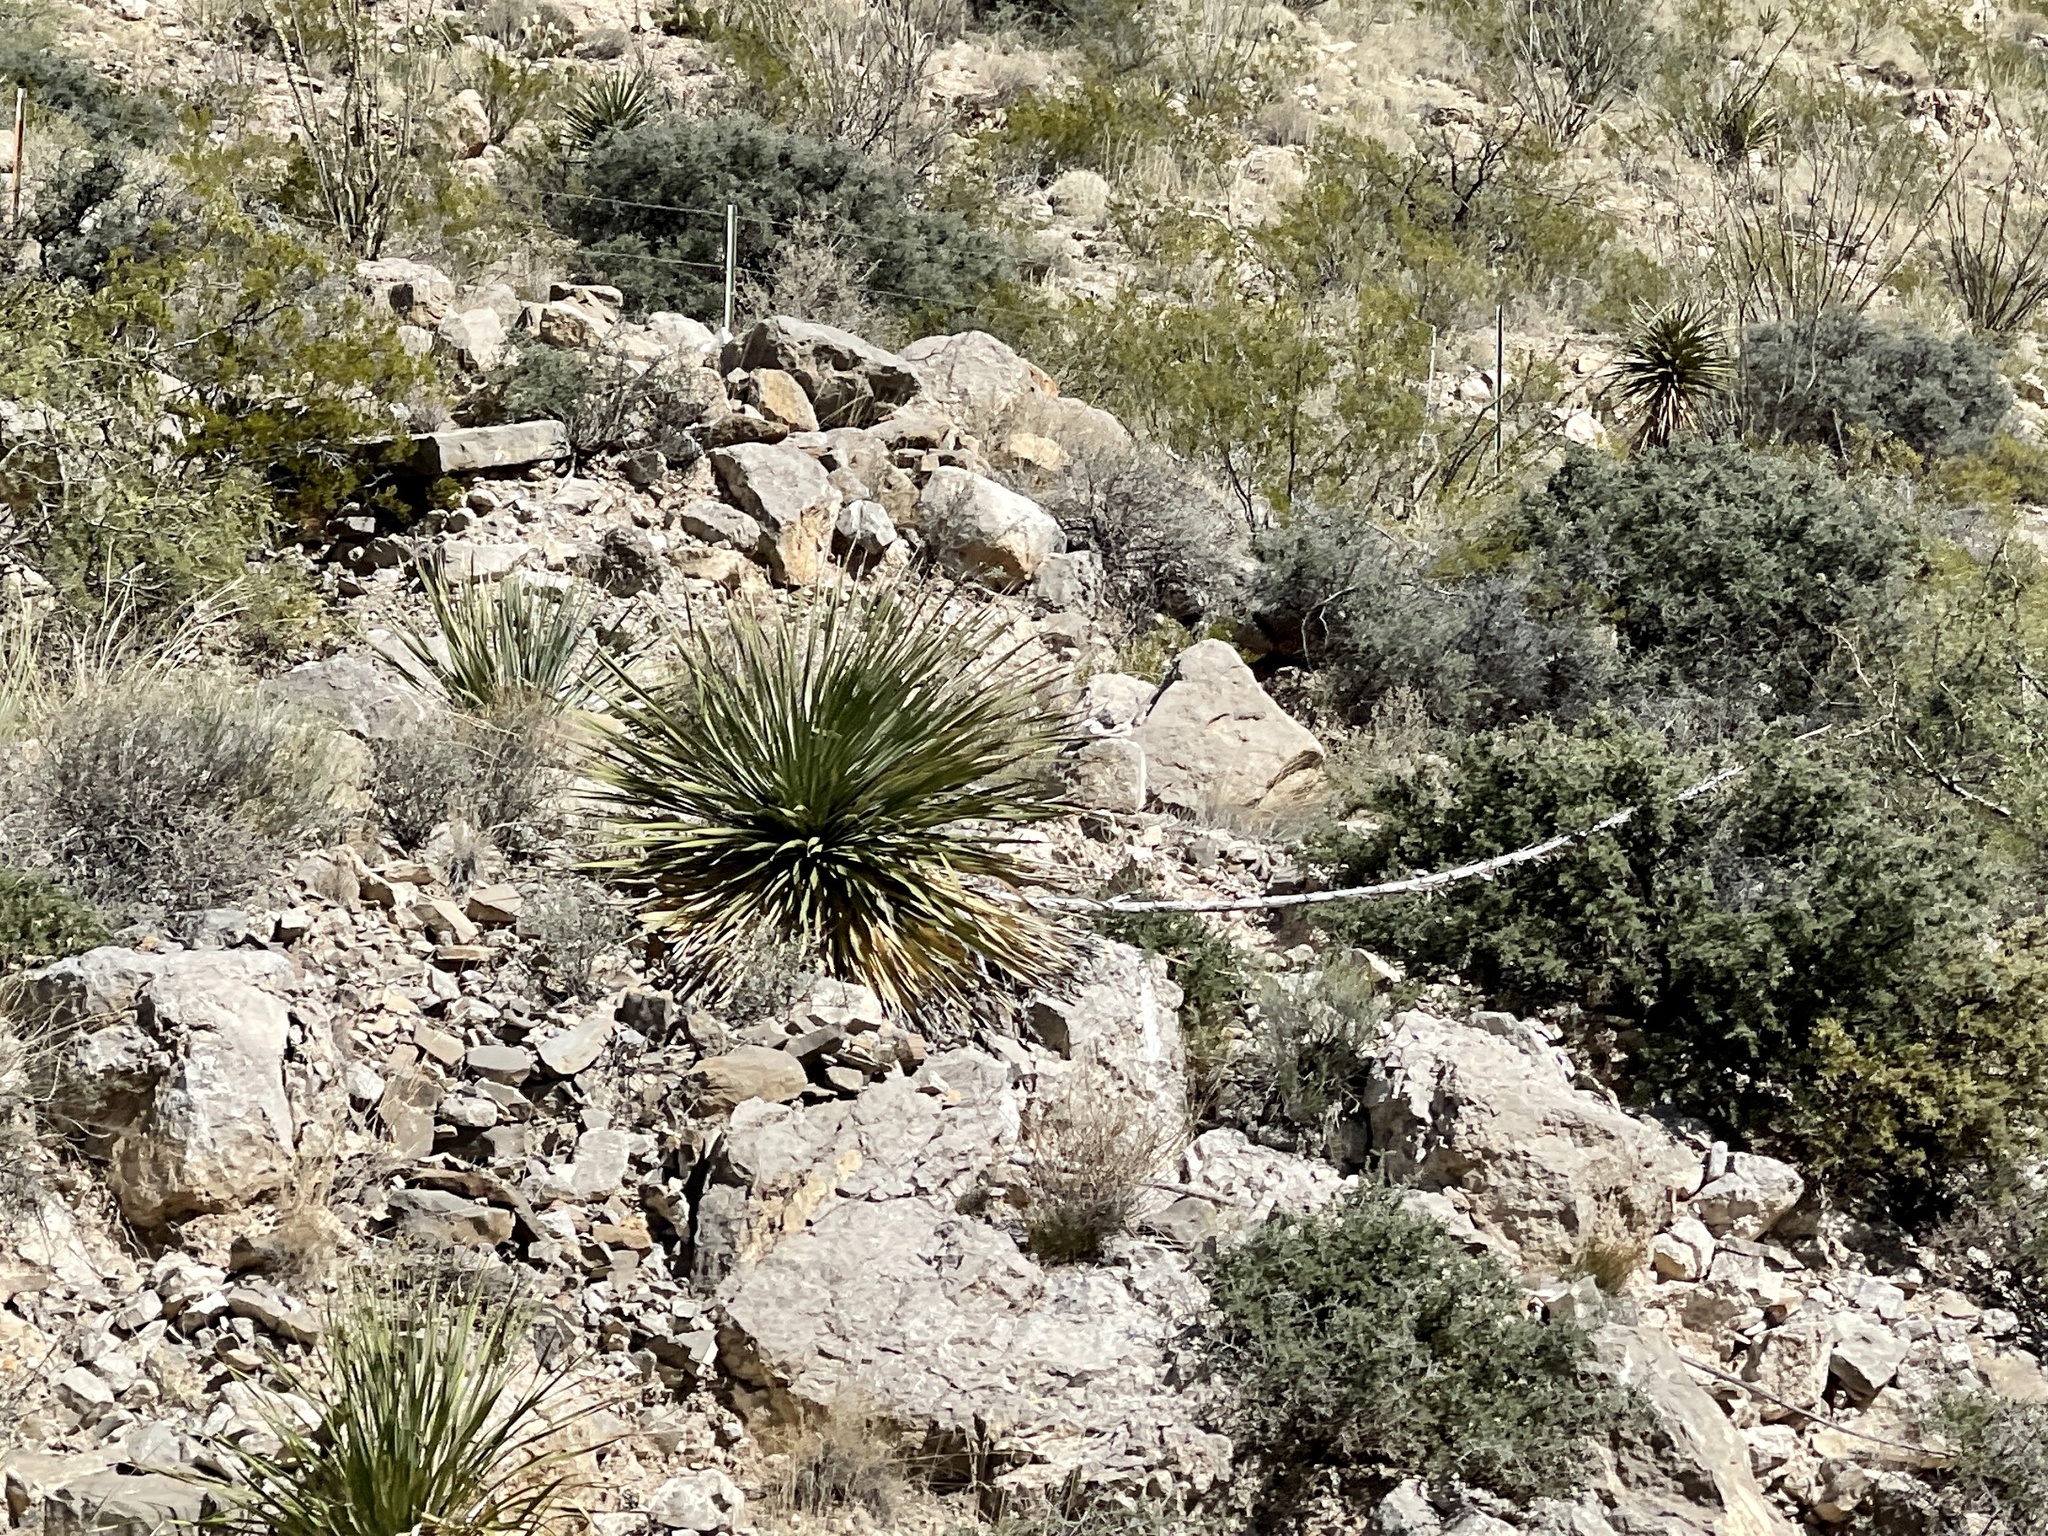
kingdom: Plantae
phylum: Tracheophyta
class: Liliopsida
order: Asparagales
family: Asparagaceae
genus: Dasylirion
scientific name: Dasylirion wheeleri
